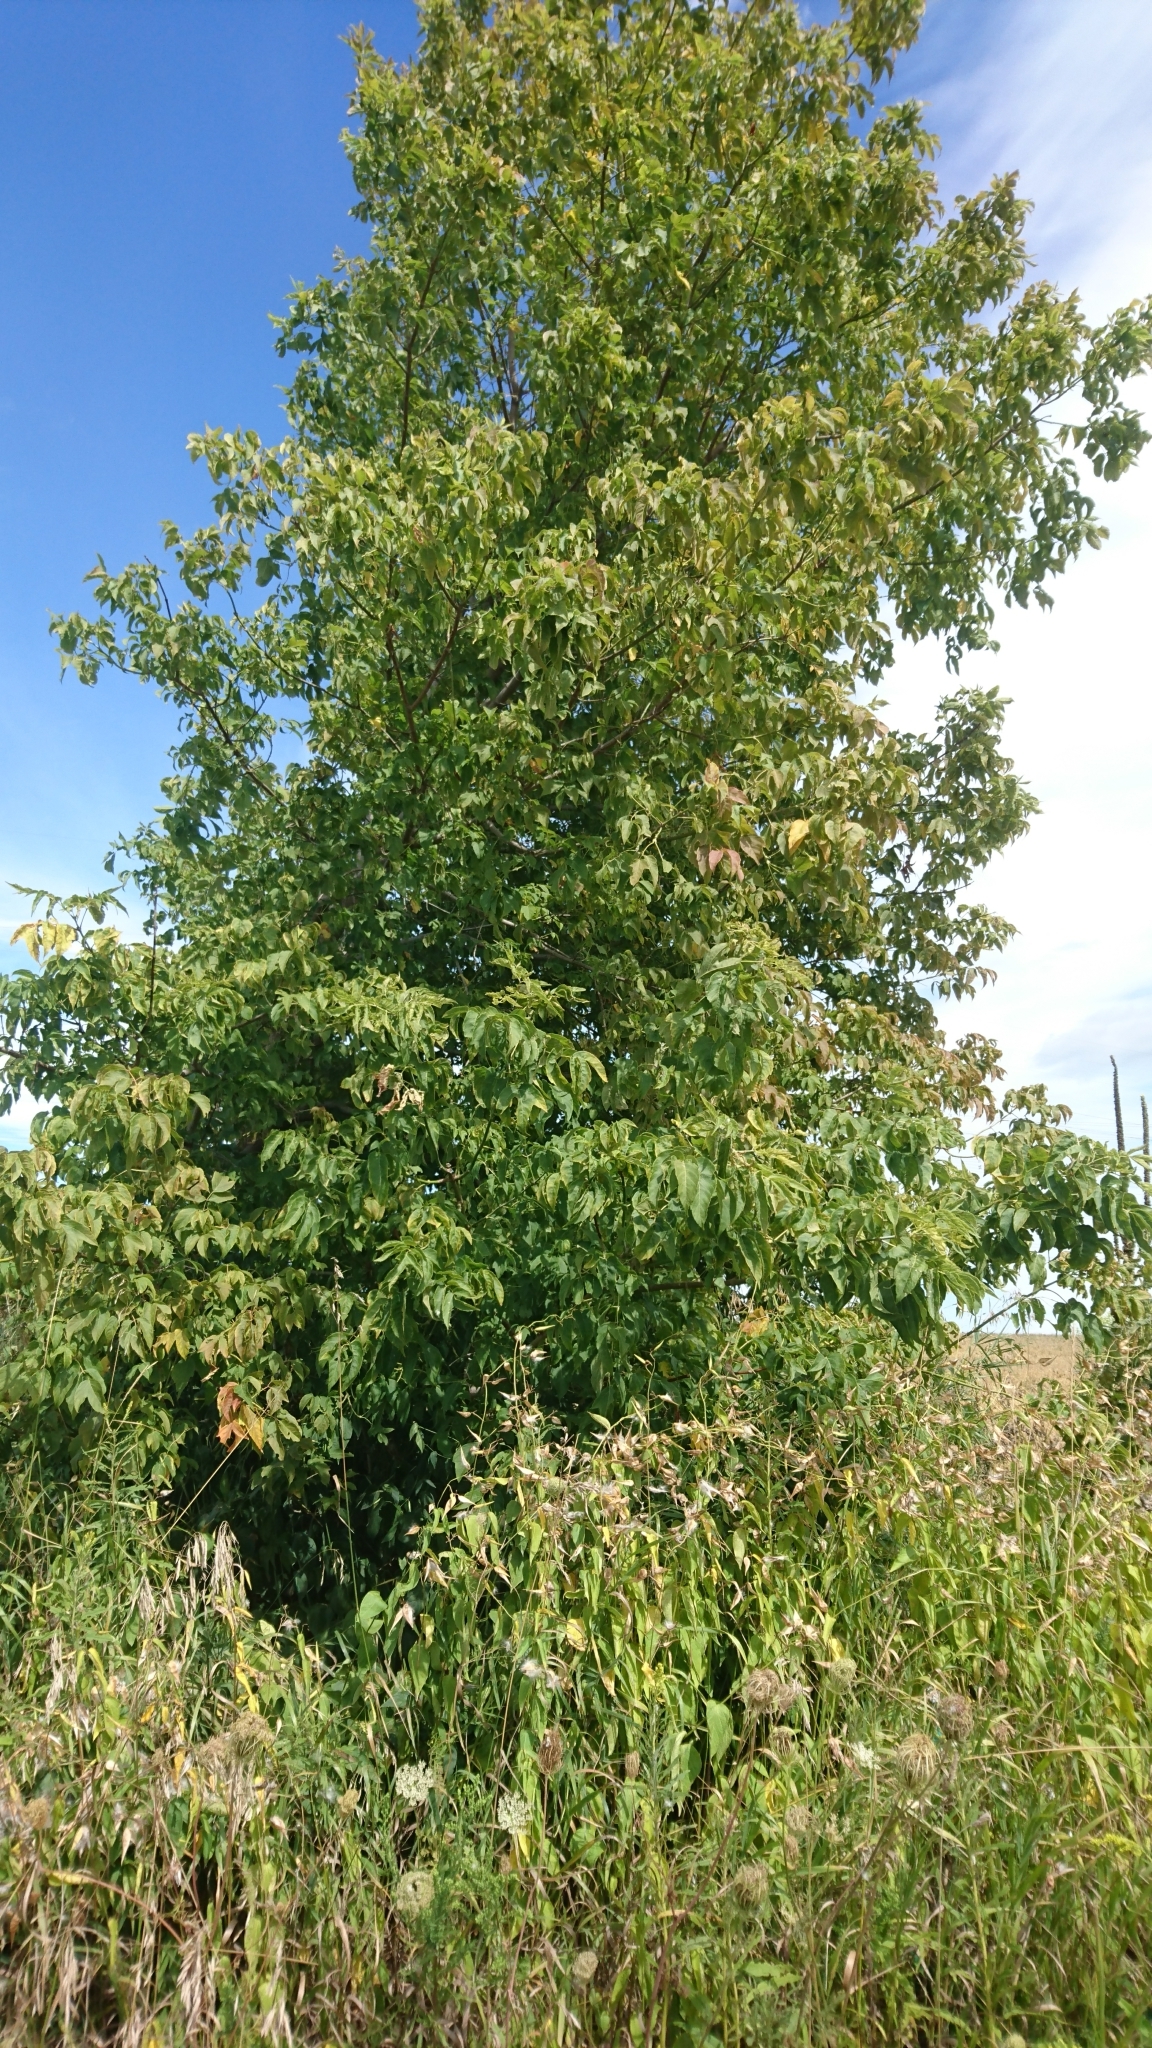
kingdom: Plantae
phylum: Tracheophyta
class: Magnoliopsida
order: Sapindales
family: Sapindaceae
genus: Acer
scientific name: Acer negundo
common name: Ashleaf maple
